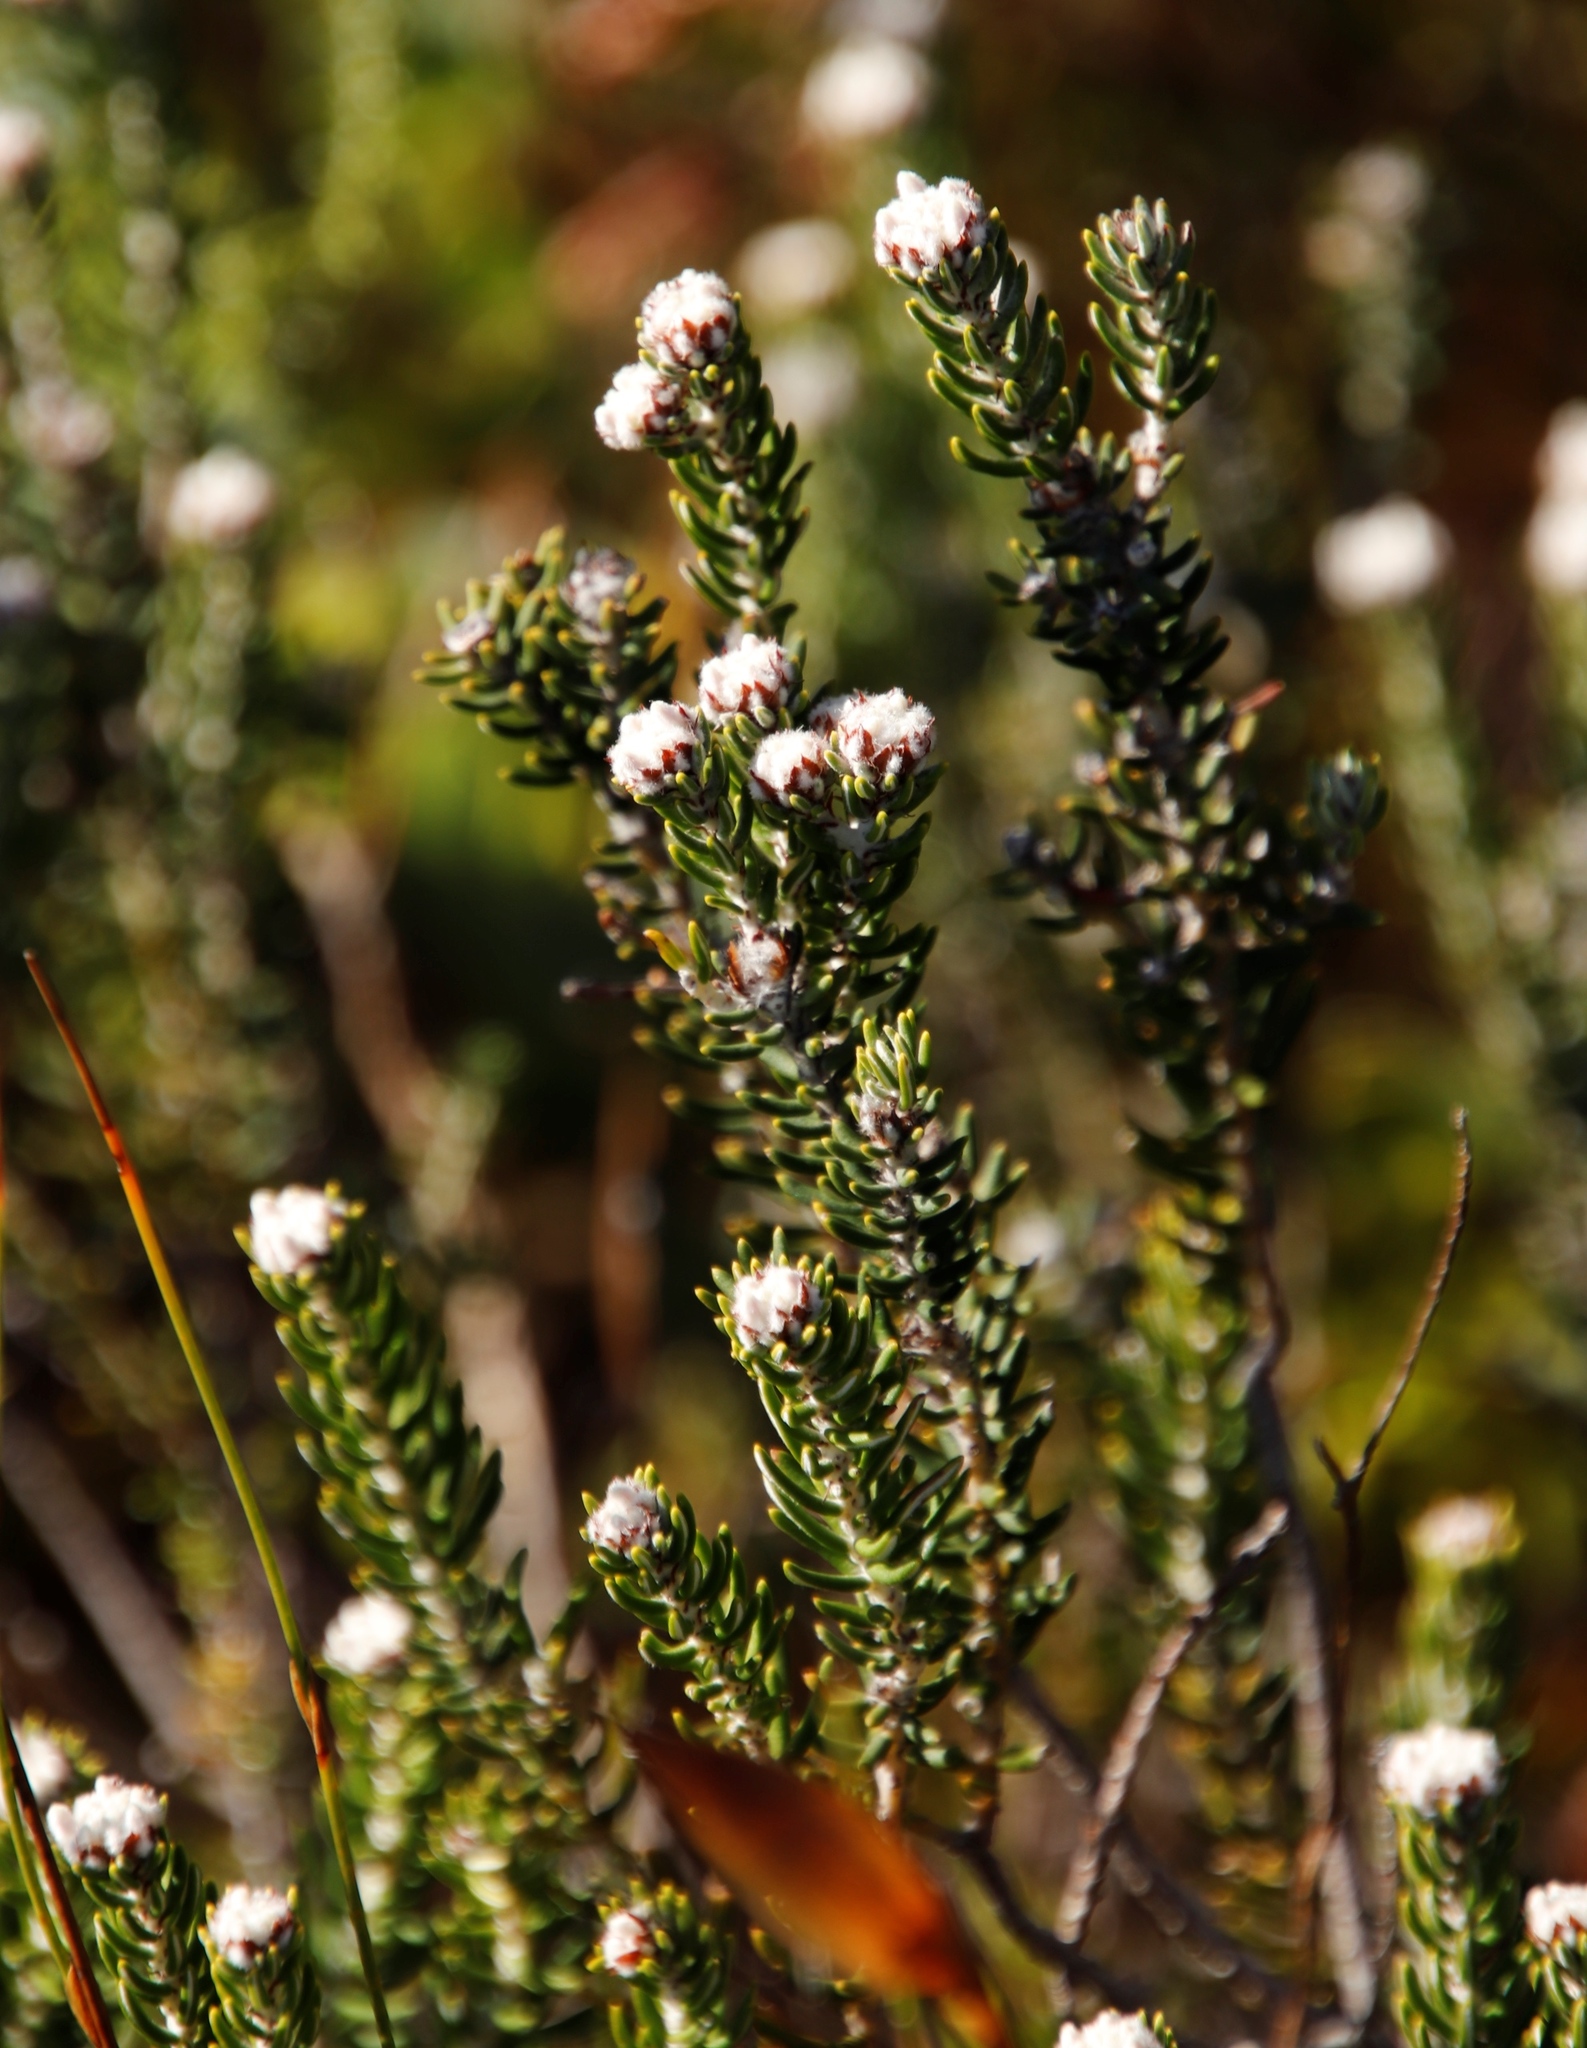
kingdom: Plantae
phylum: Tracheophyta
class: Magnoliopsida
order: Rosales
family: Rhamnaceae
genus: Trichocephalus
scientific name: Trichocephalus stipularis
